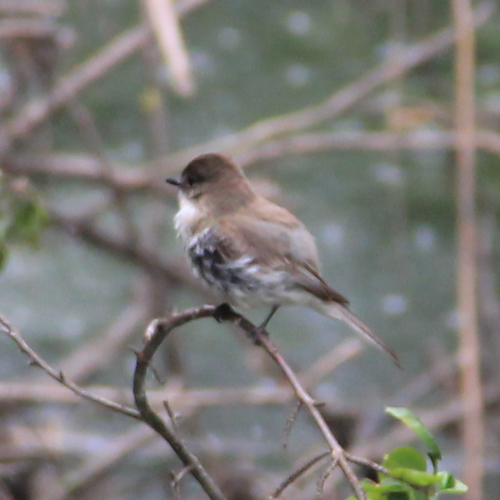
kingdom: Animalia
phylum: Chordata
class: Aves
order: Passeriformes
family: Tyrannidae
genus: Sayornis
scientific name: Sayornis phoebe
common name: Eastern phoebe
